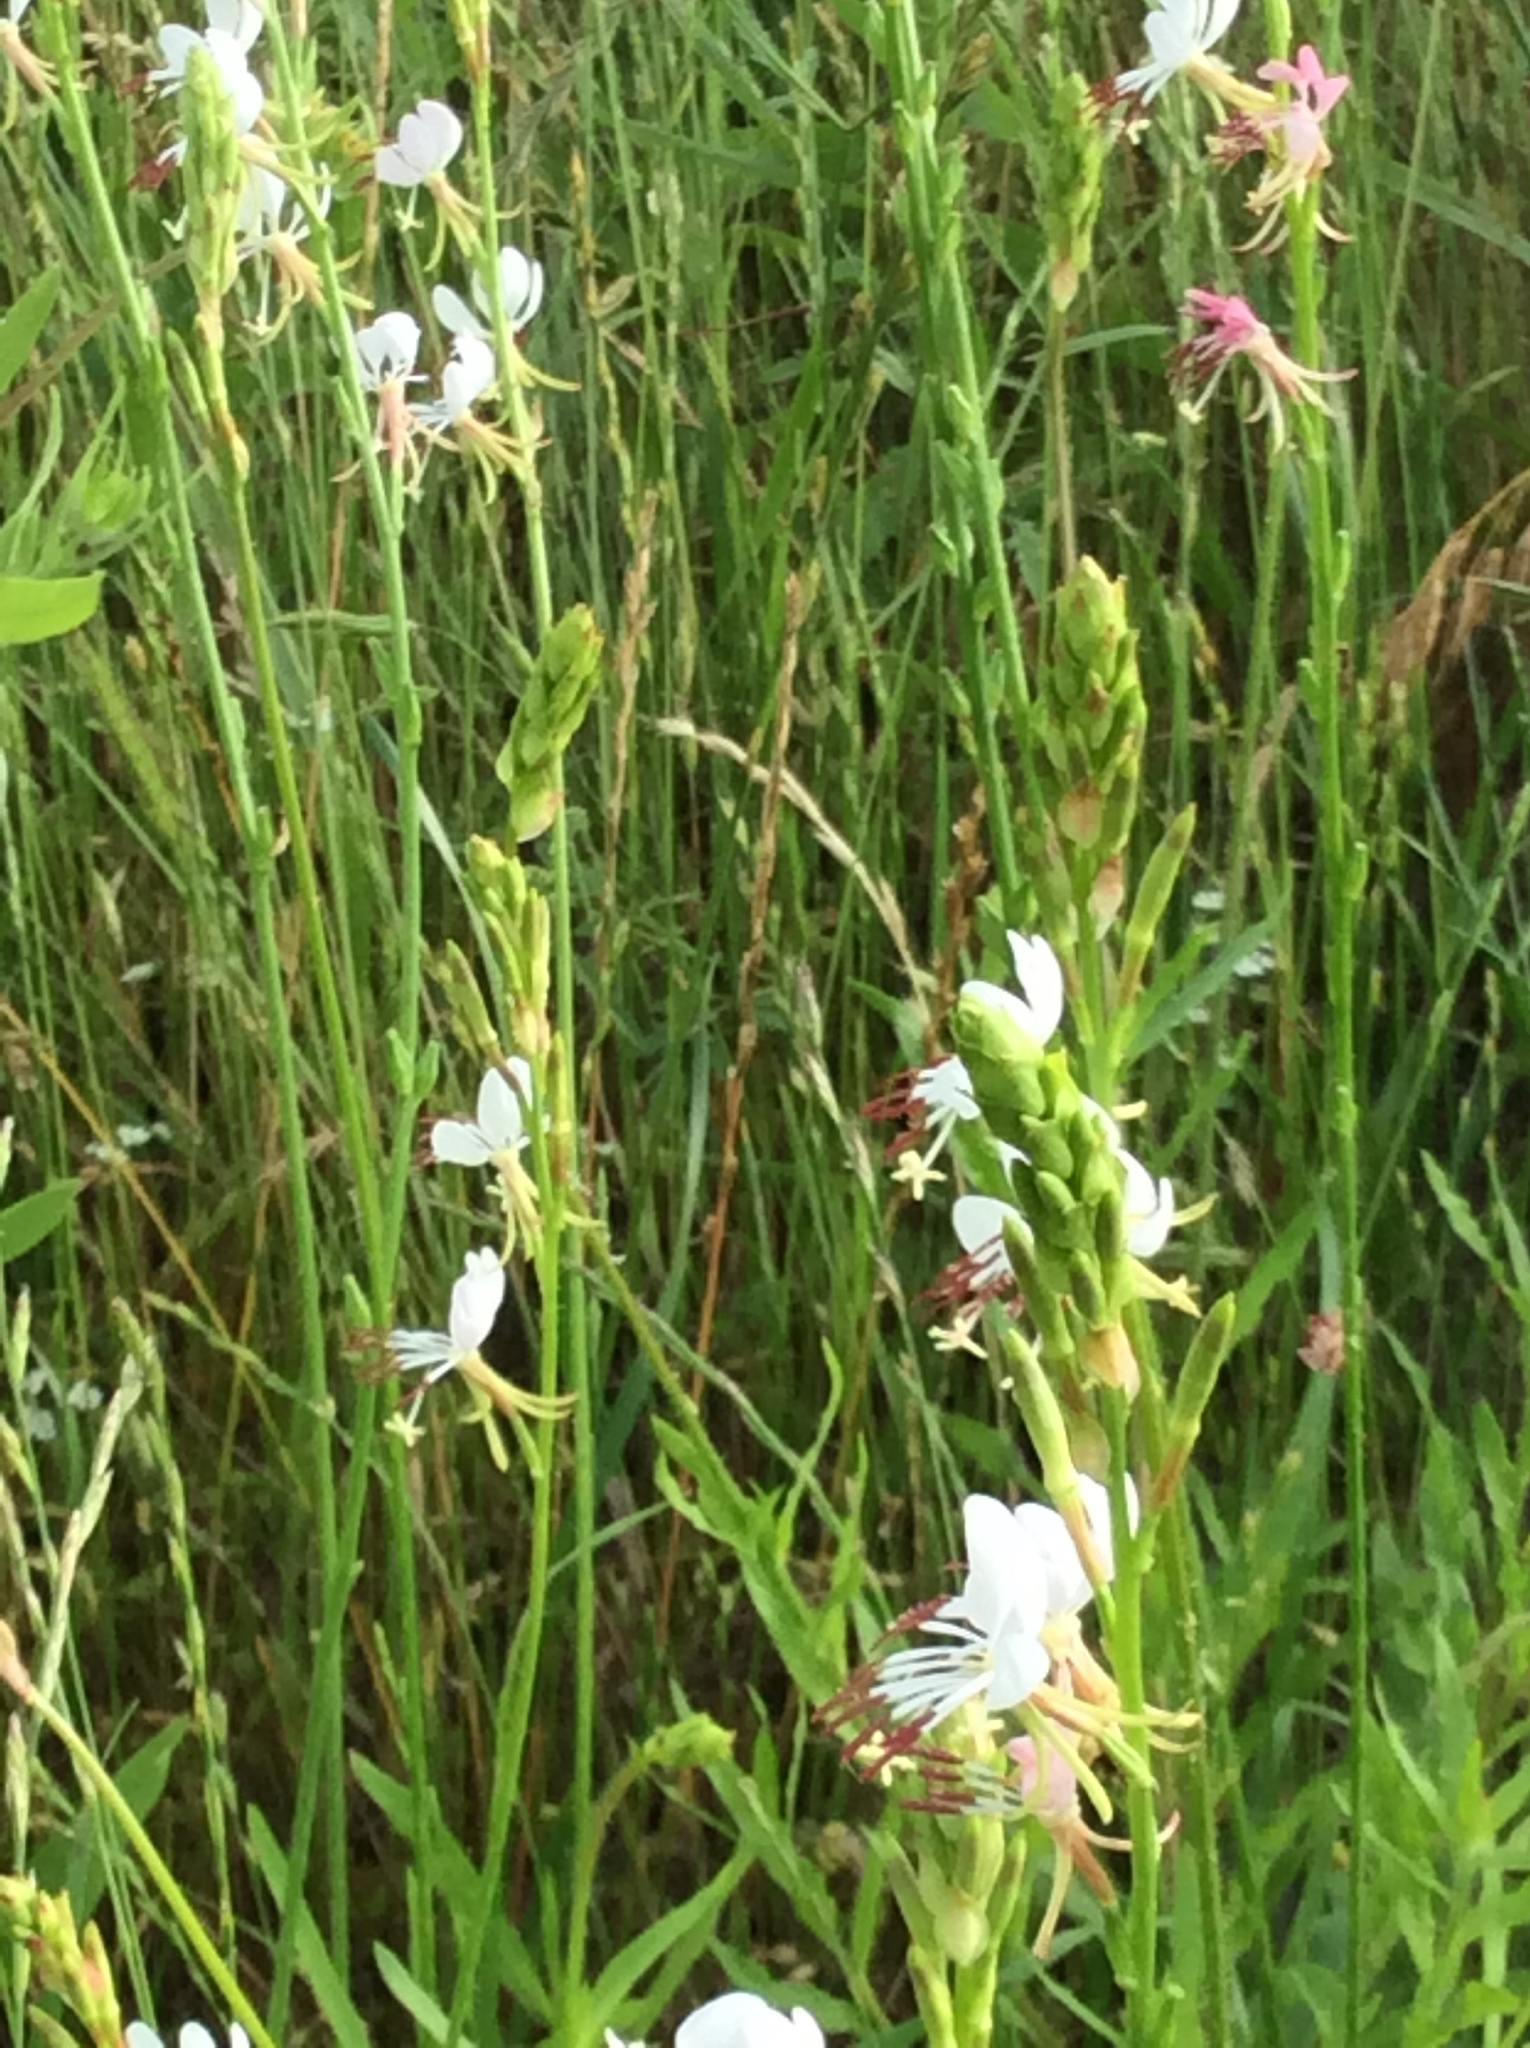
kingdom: Plantae
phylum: Tracheophyta
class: Magnoliopsida
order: Myrtales
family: Onagraceae
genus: Oenothera
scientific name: Oenothera suffulta
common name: Kisses
